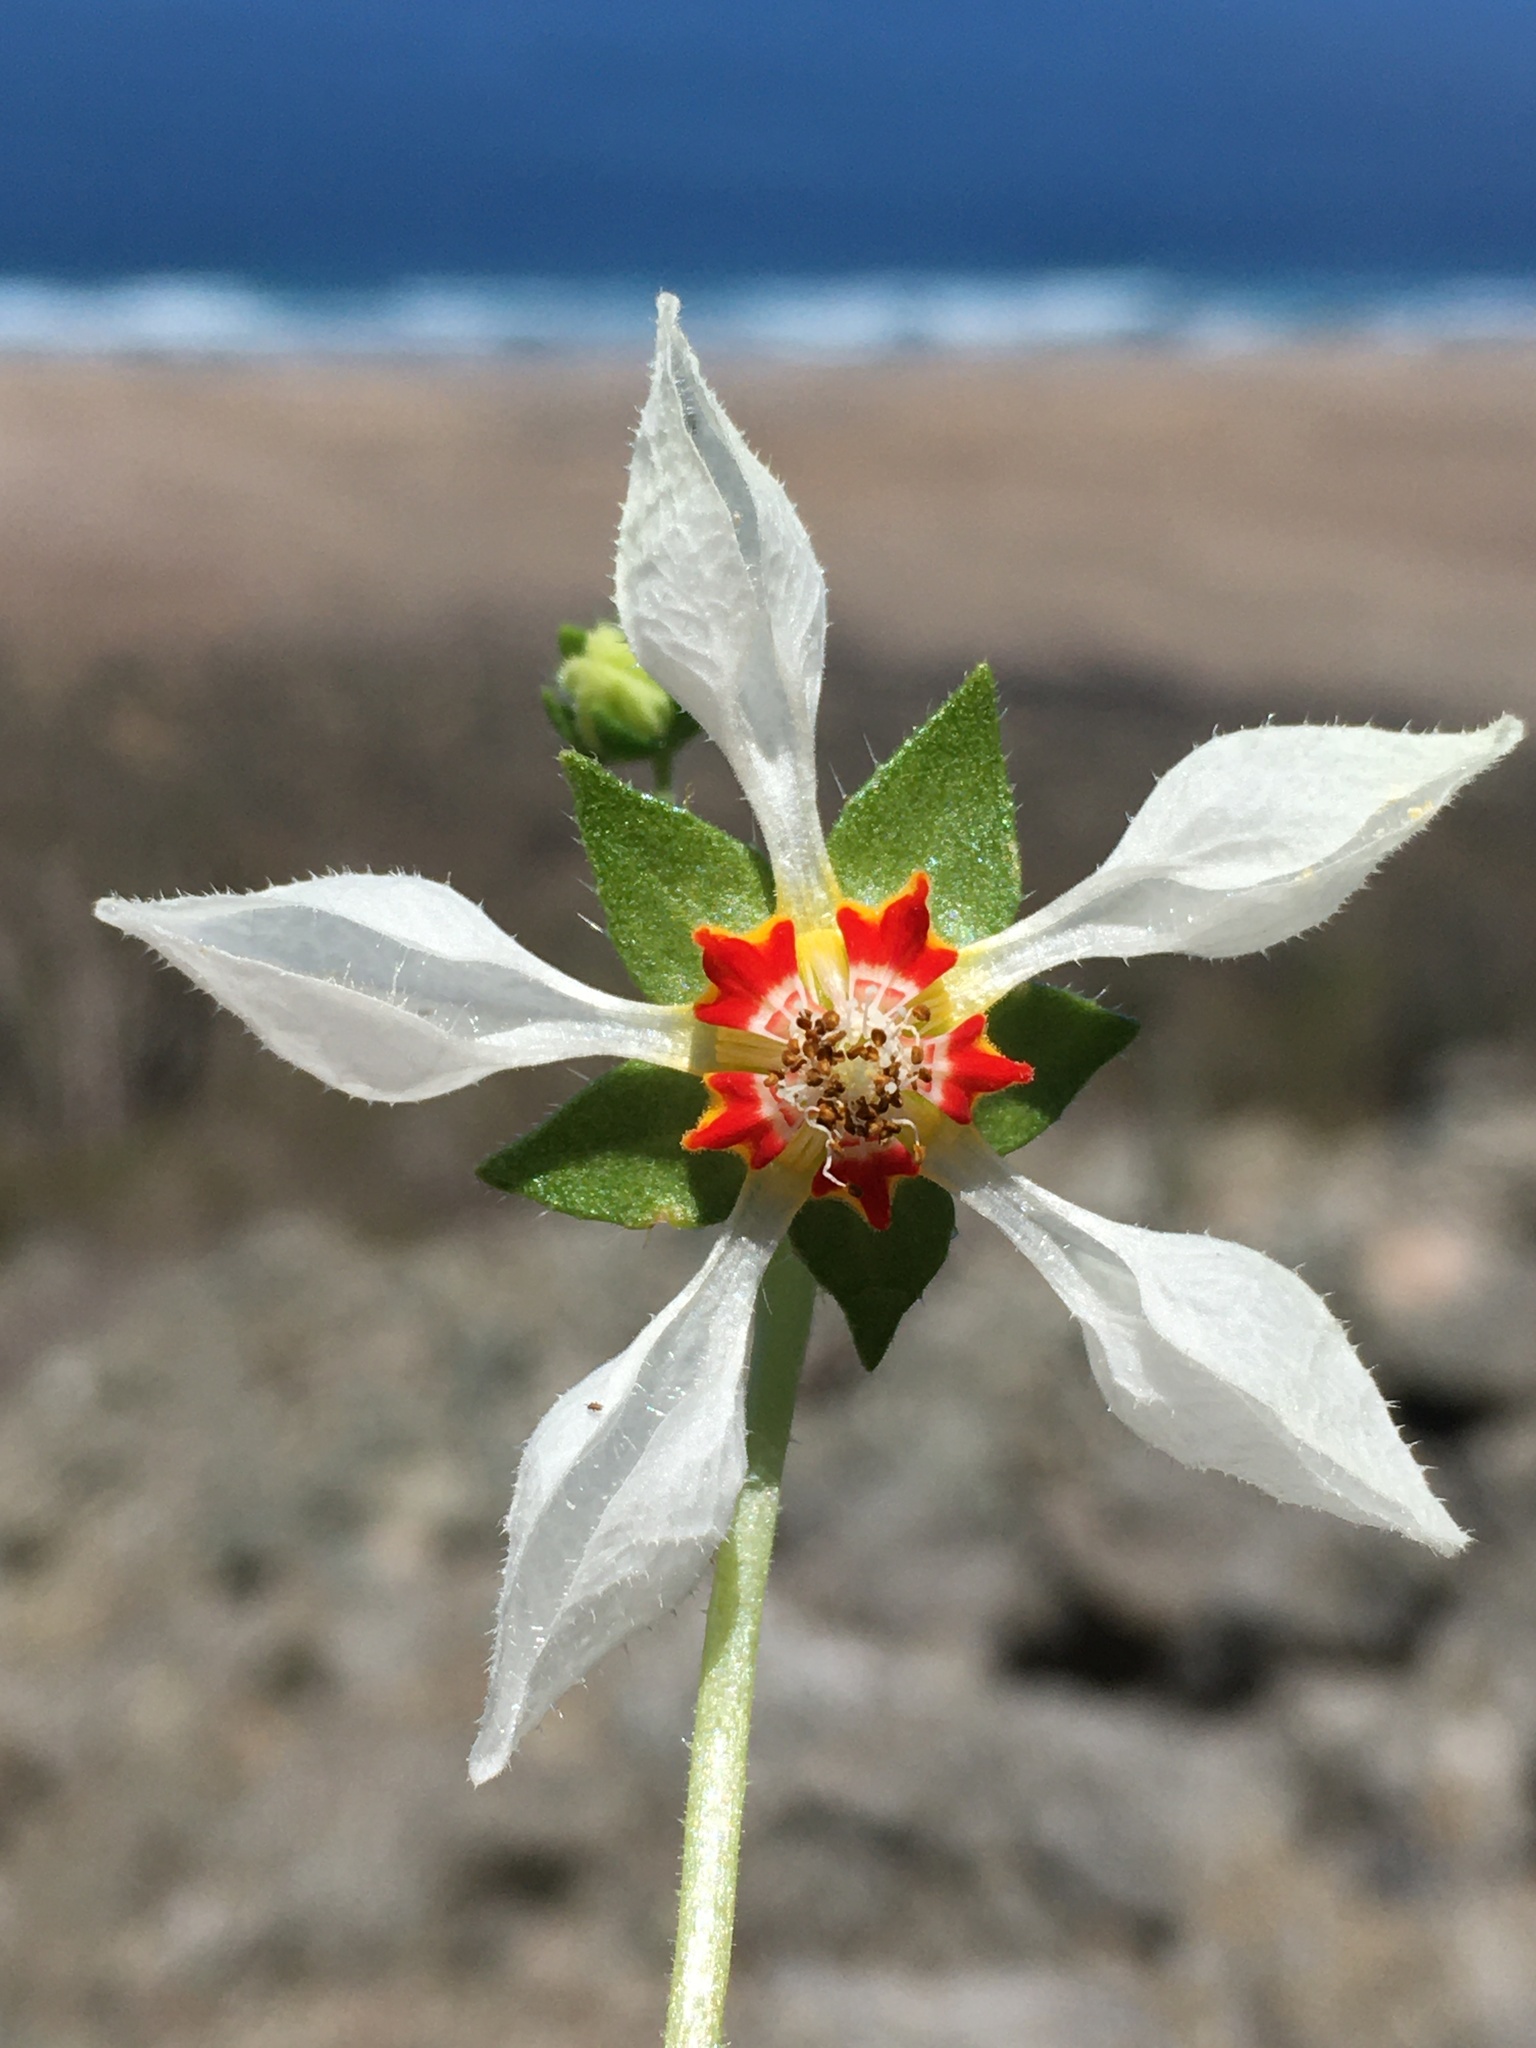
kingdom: Plantae
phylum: Tracheophyta
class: Magnoliopsida
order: Cornales
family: Loasaceae
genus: Loasa
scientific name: Loasa elongata
